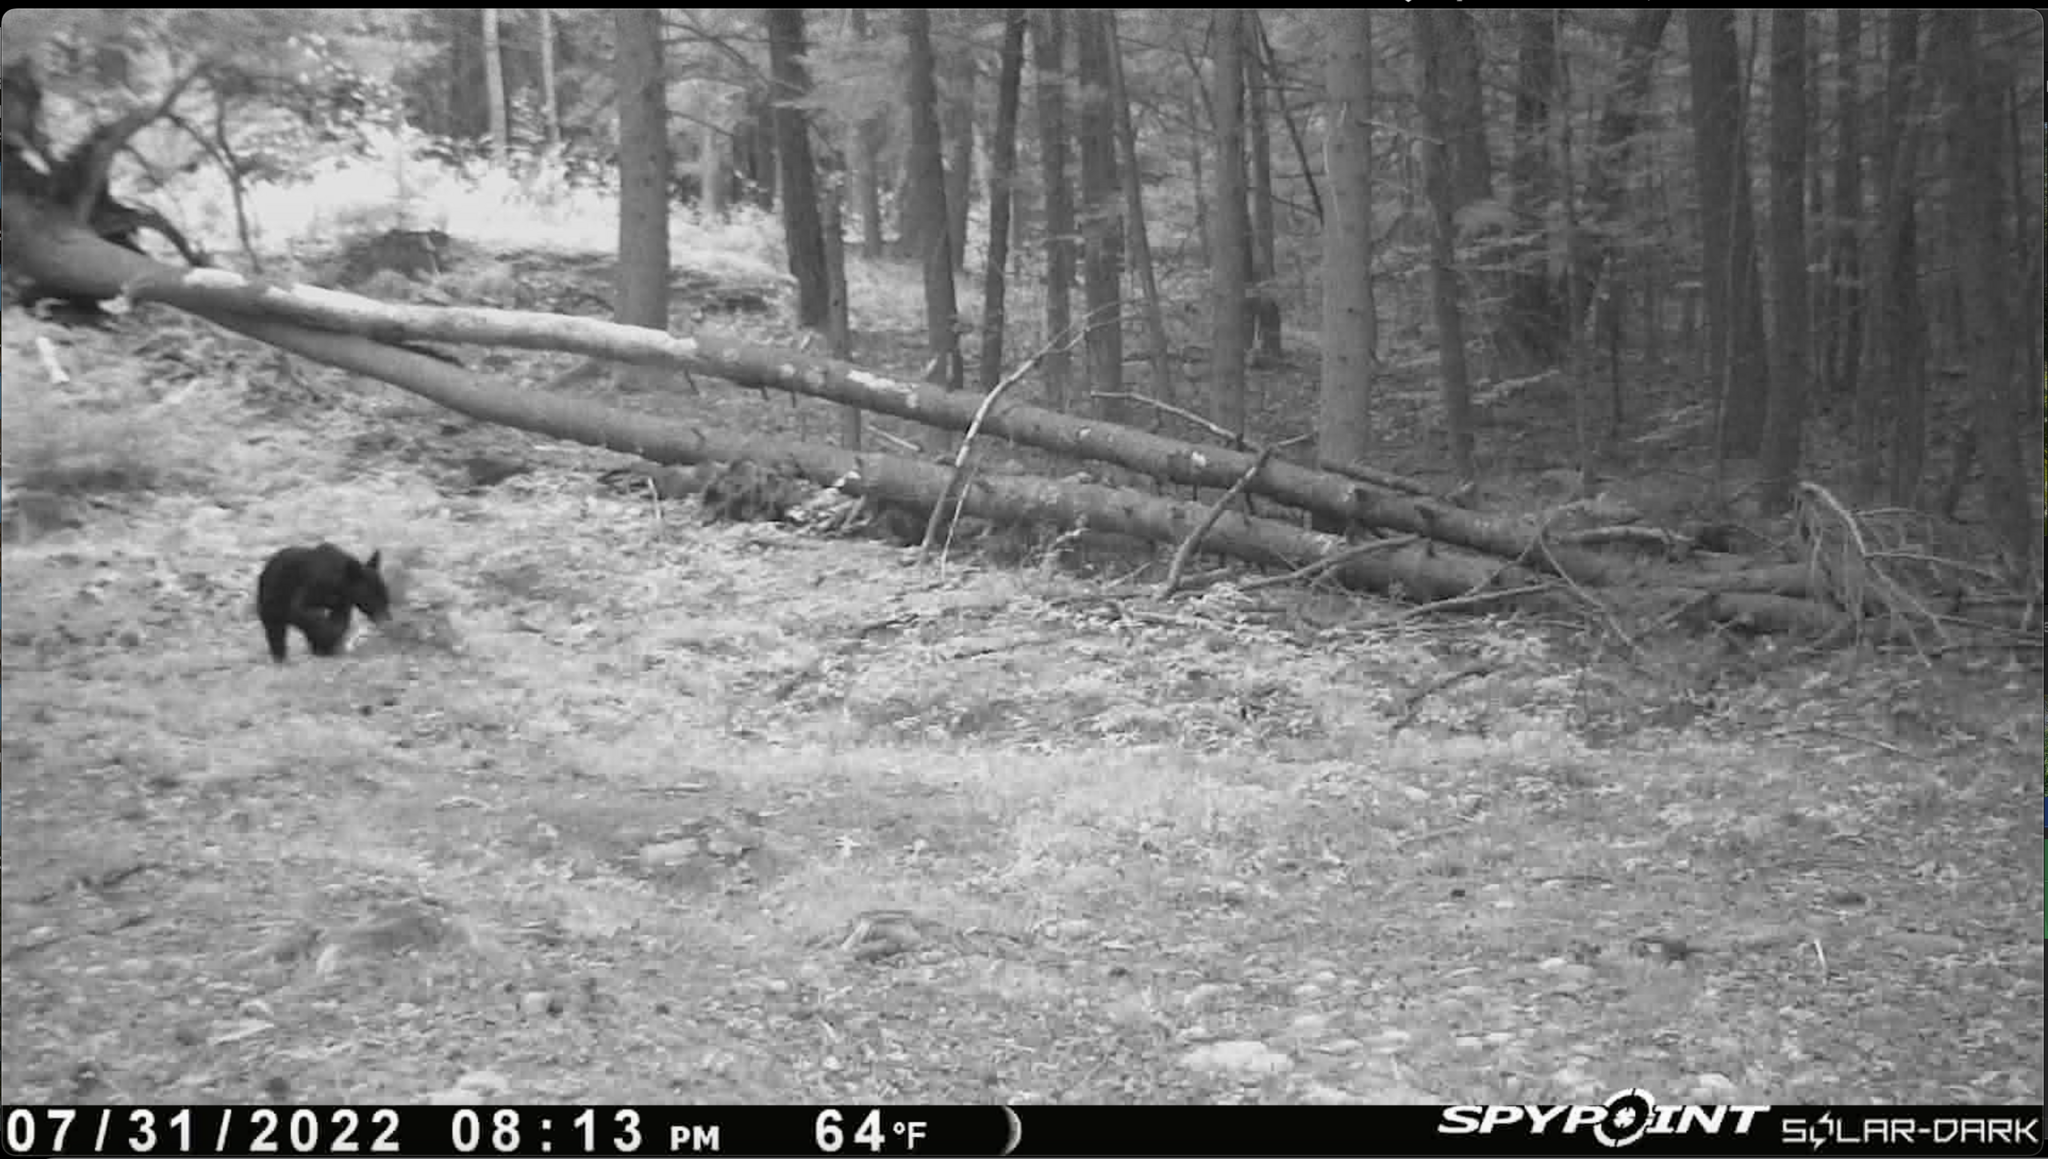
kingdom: Animalia
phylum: Chordata
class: Mammalia
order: Carnivora
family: Ursidae
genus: Ursus
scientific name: Ursus americanus
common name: American black bear
